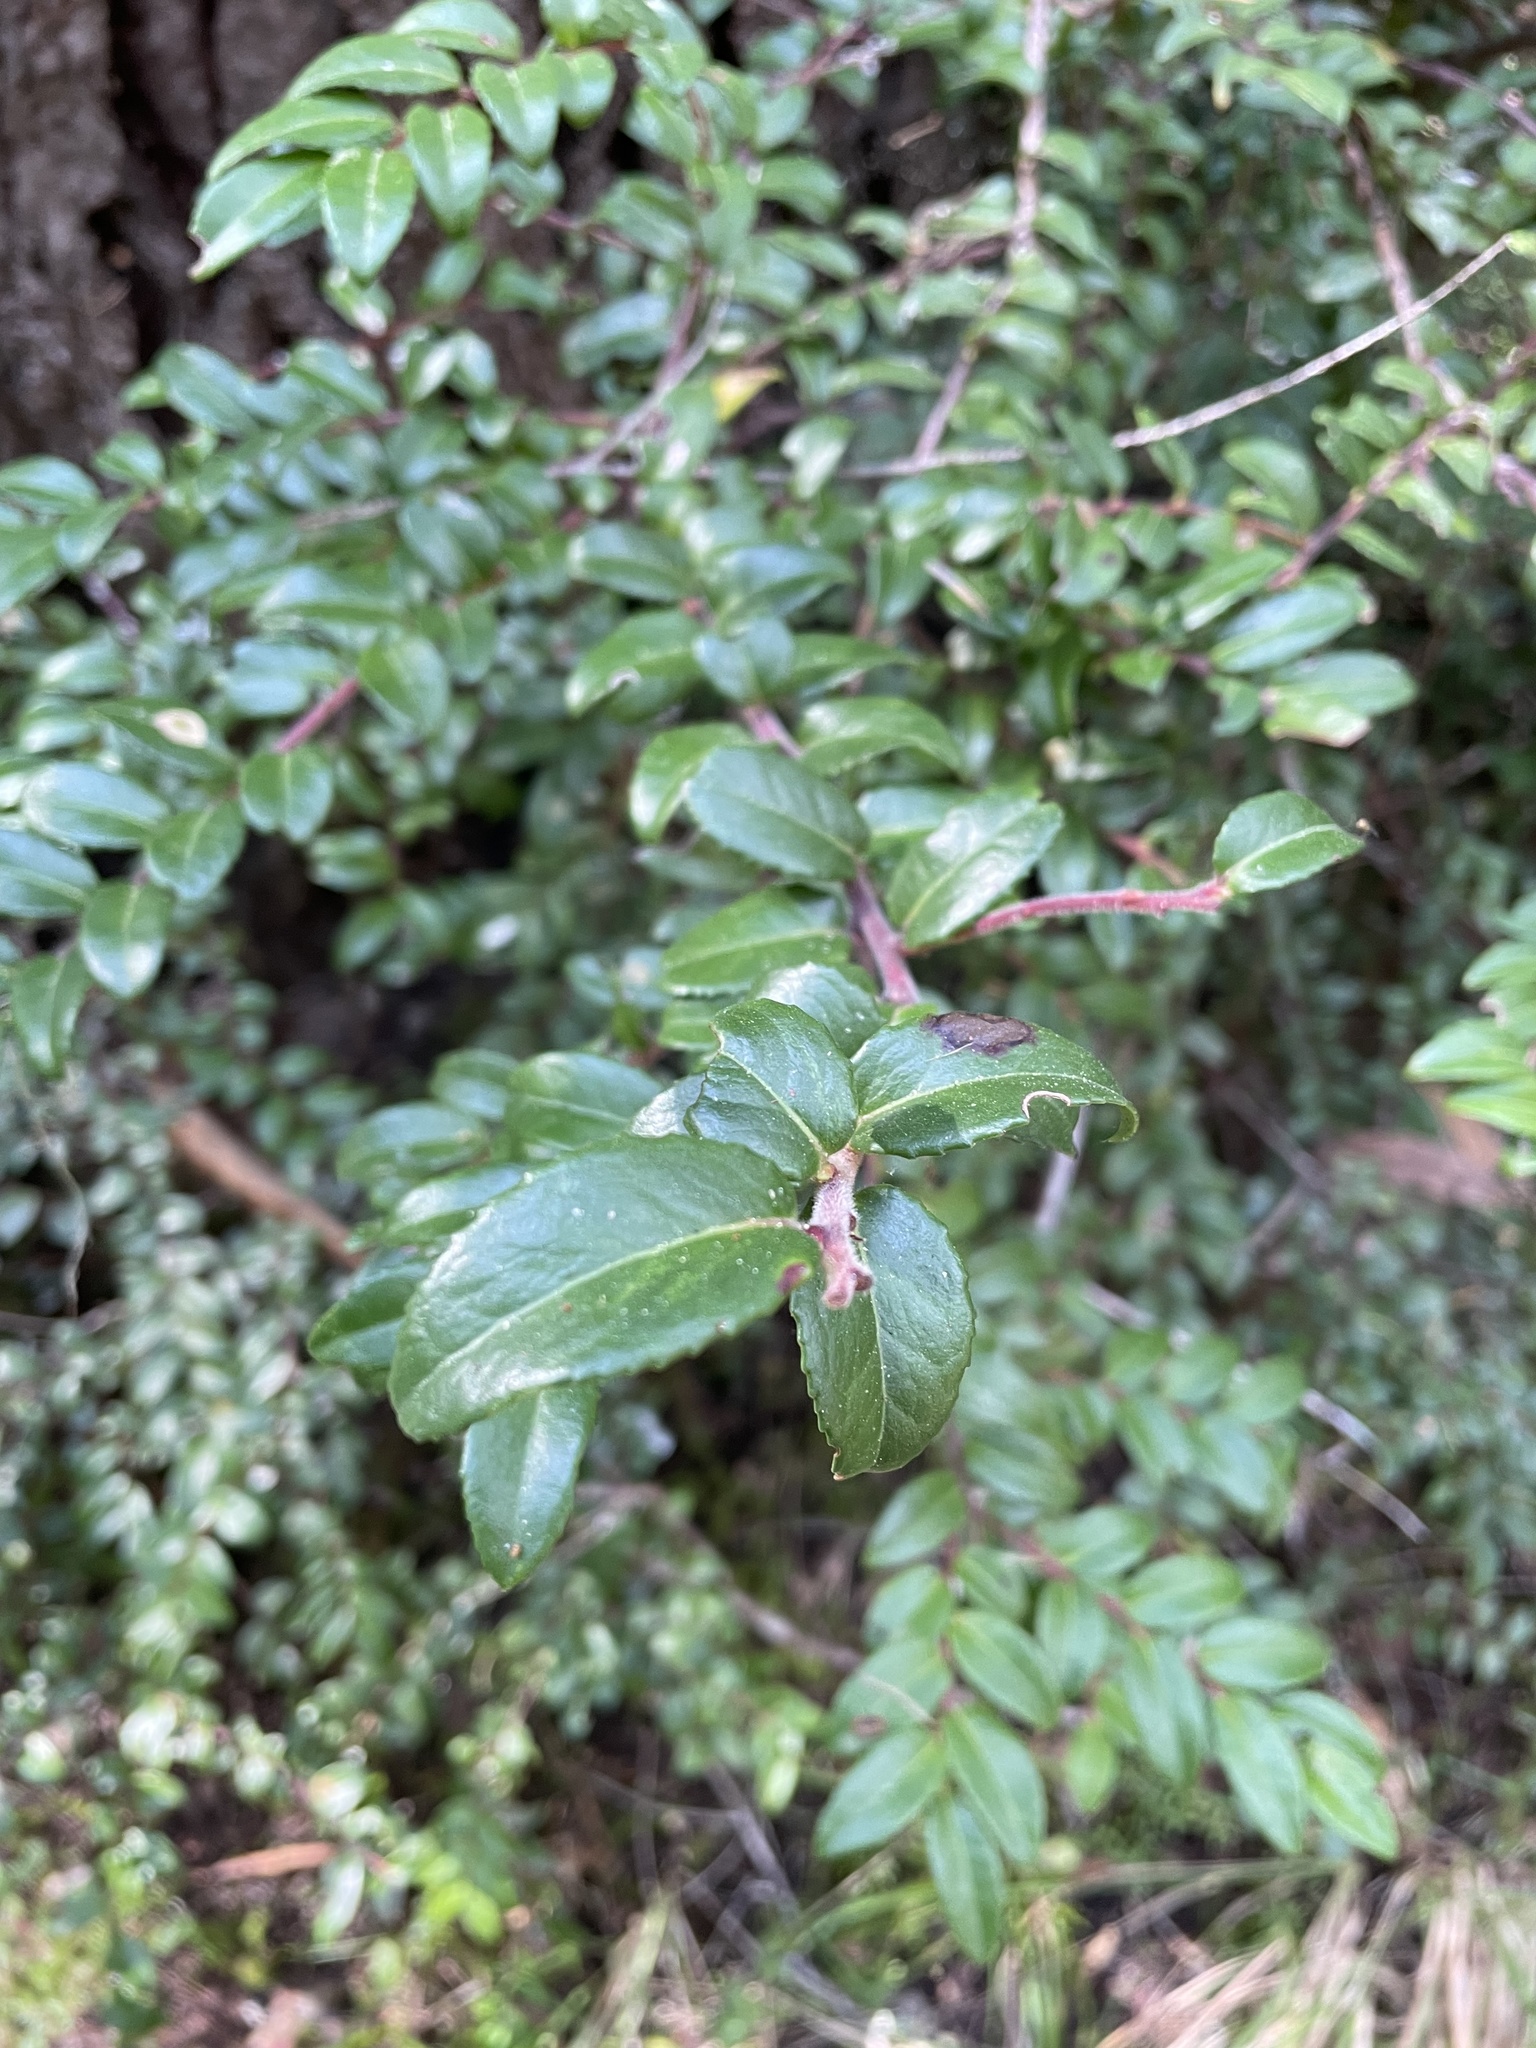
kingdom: Plantae
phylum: Tracheophyta
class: Magnoliopsida
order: Ericales
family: Ericaceae
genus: Vaccinium
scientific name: Vaccinium ovatum
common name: California-huckleberry
